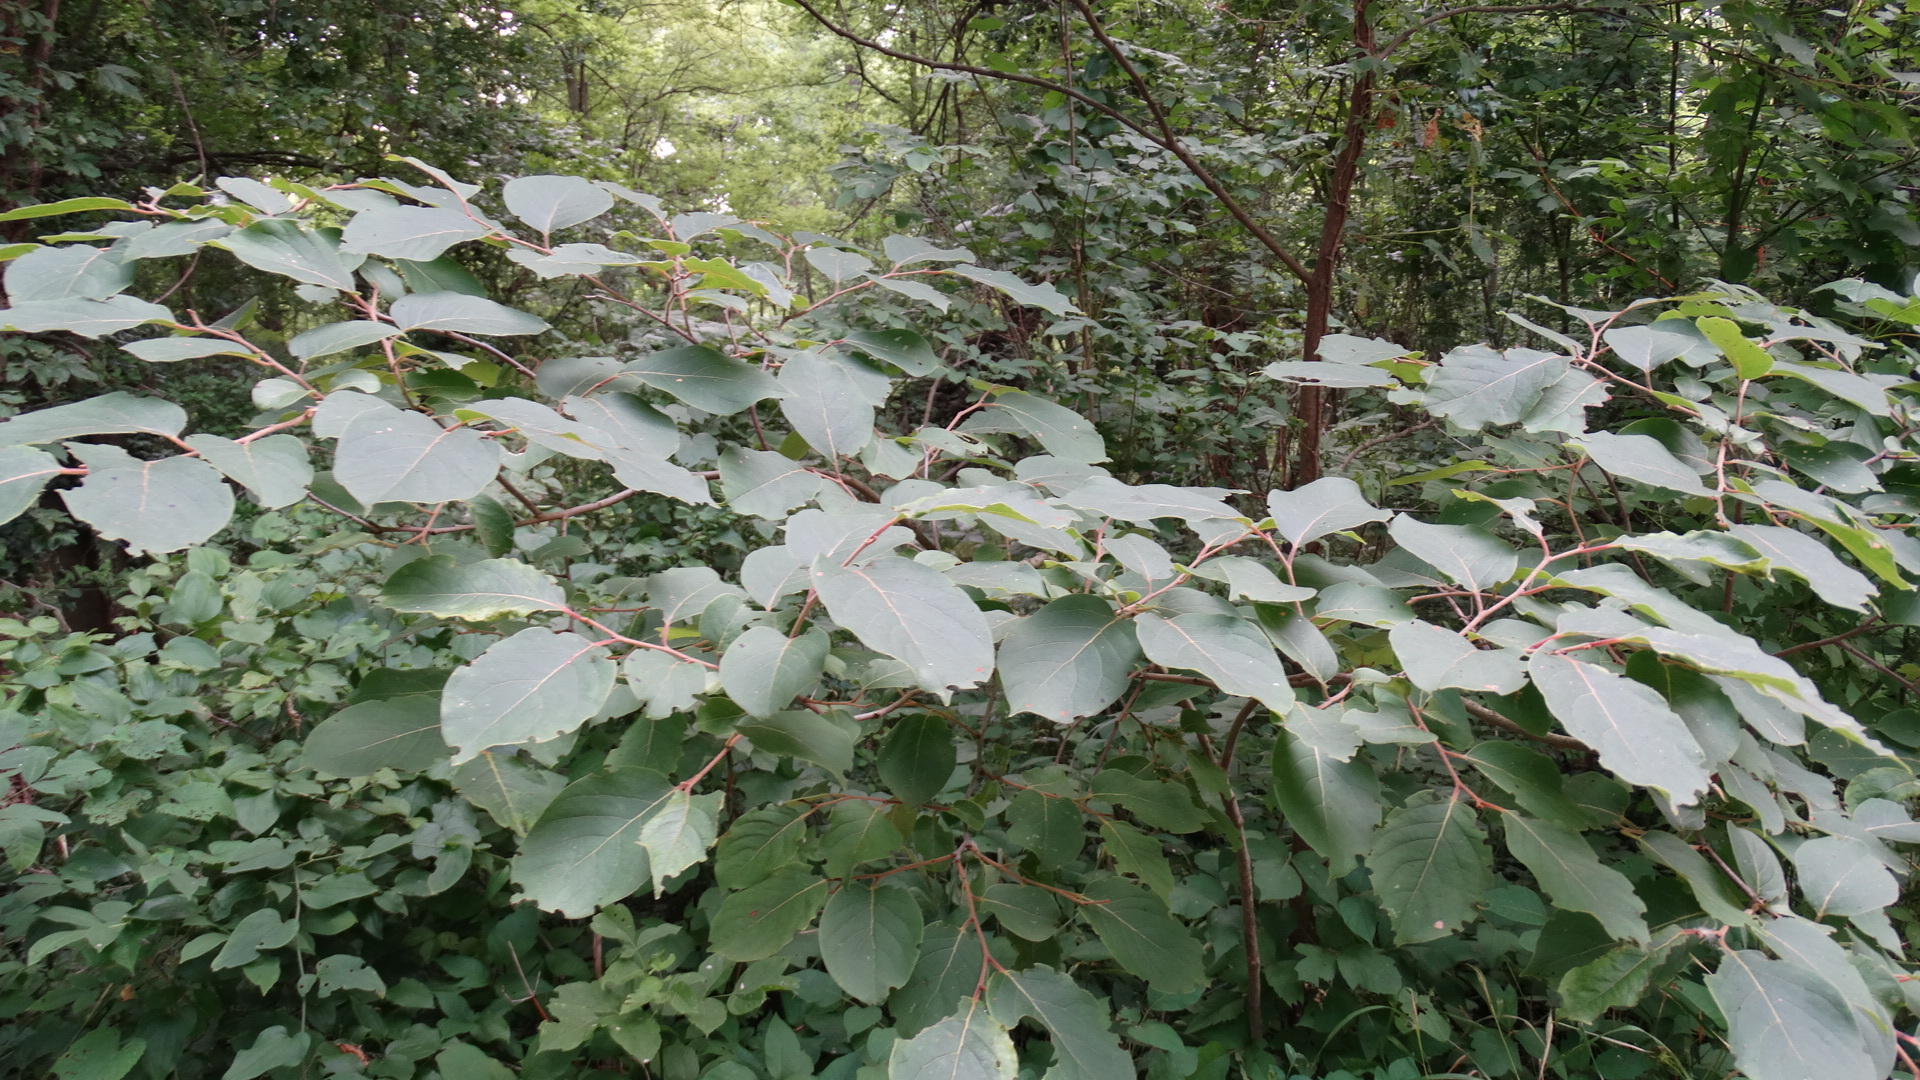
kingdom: Plantae
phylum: Tracheophyta
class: Magnoliopsida
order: Ericales
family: Ebenaceae
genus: Diospyros
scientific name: Diospyros virginiana
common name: Persimmon
